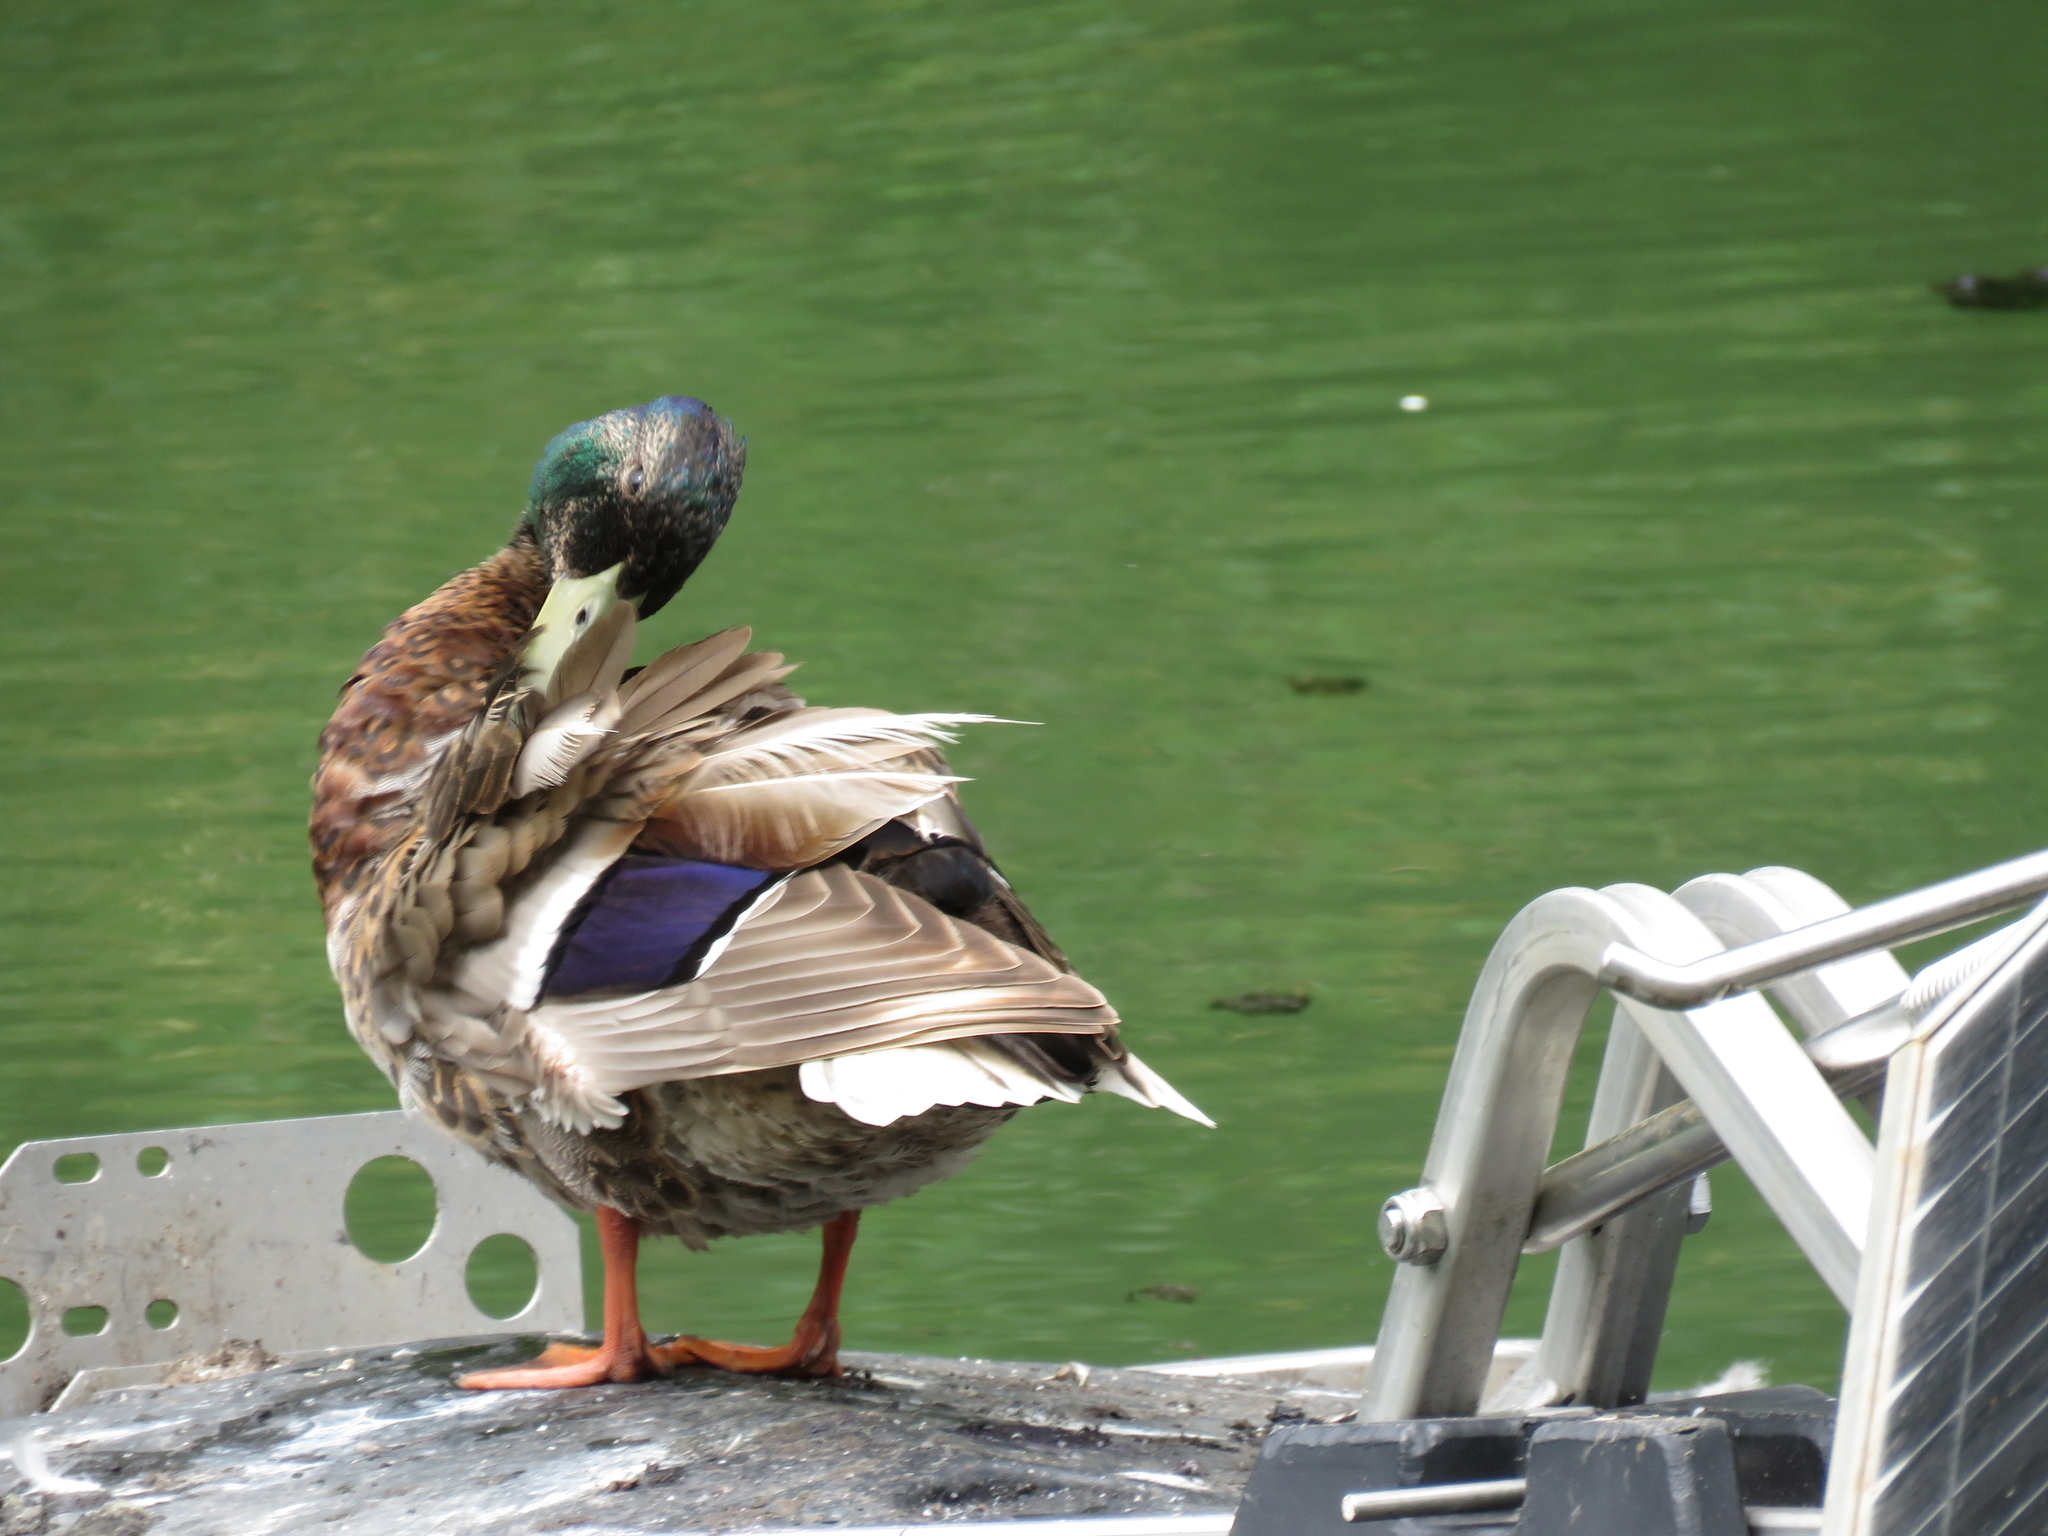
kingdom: Animalia
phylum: Chordata
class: Aves
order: Anseriformes
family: Anatidae
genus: Anas
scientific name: Anas platyrhynchos
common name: Mallard
